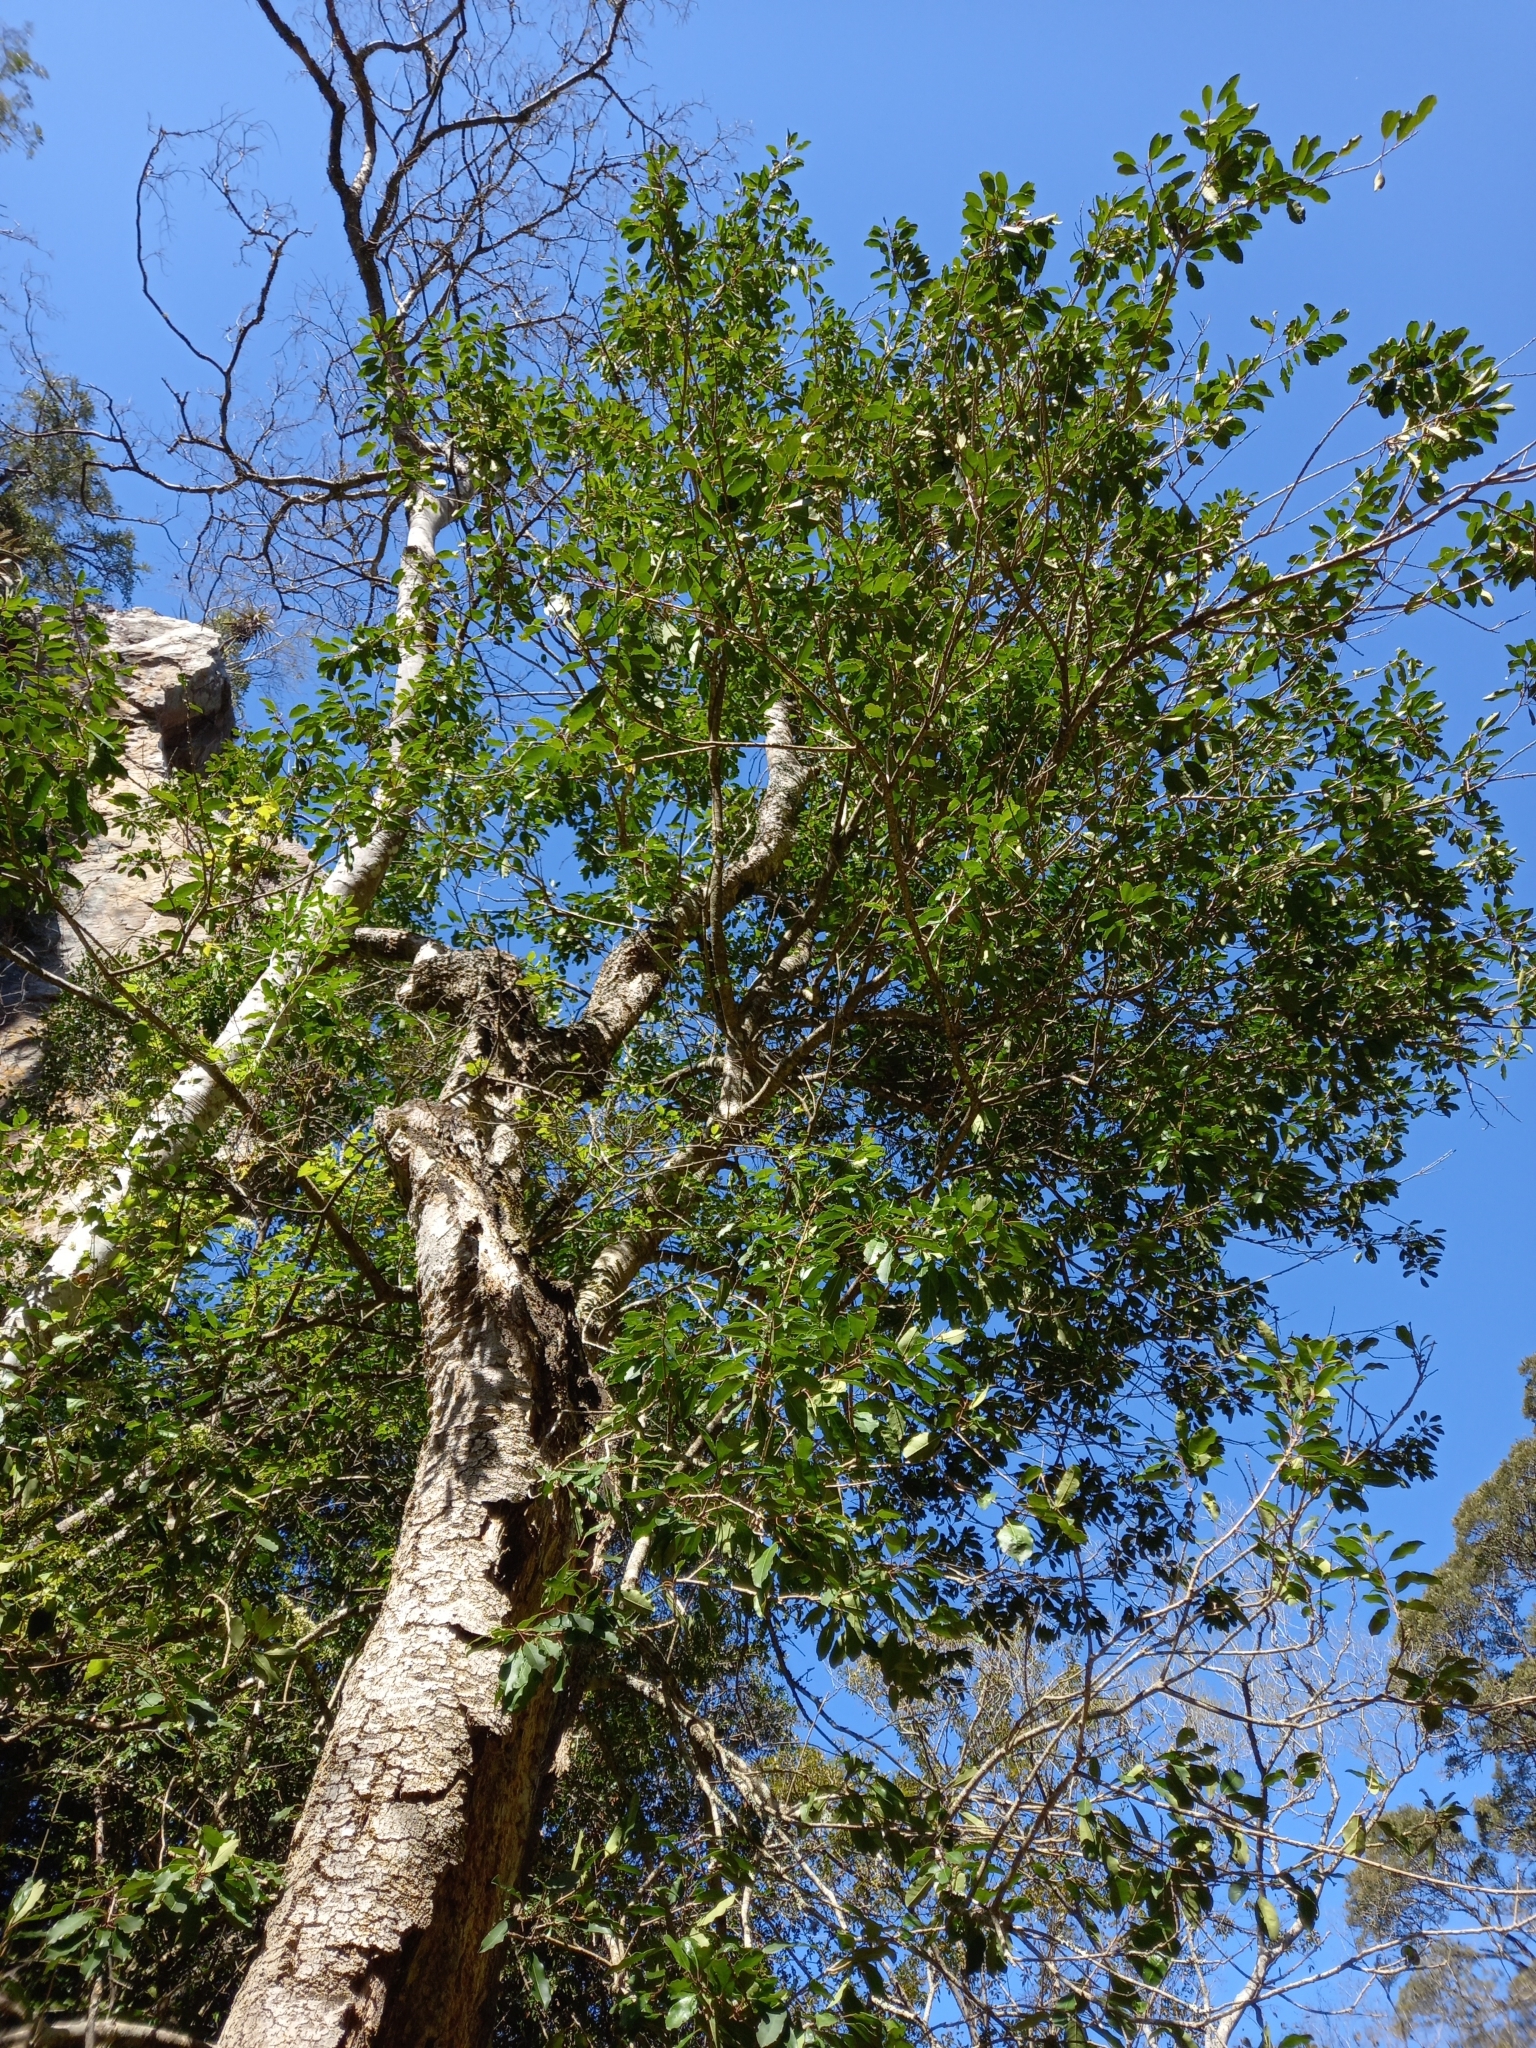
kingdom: Plantae
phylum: Tracheophyta
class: Magnoliopsida
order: Aquifoliales
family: Aquifoliaceae
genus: Ilex
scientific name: Ilex mitis
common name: African holly
